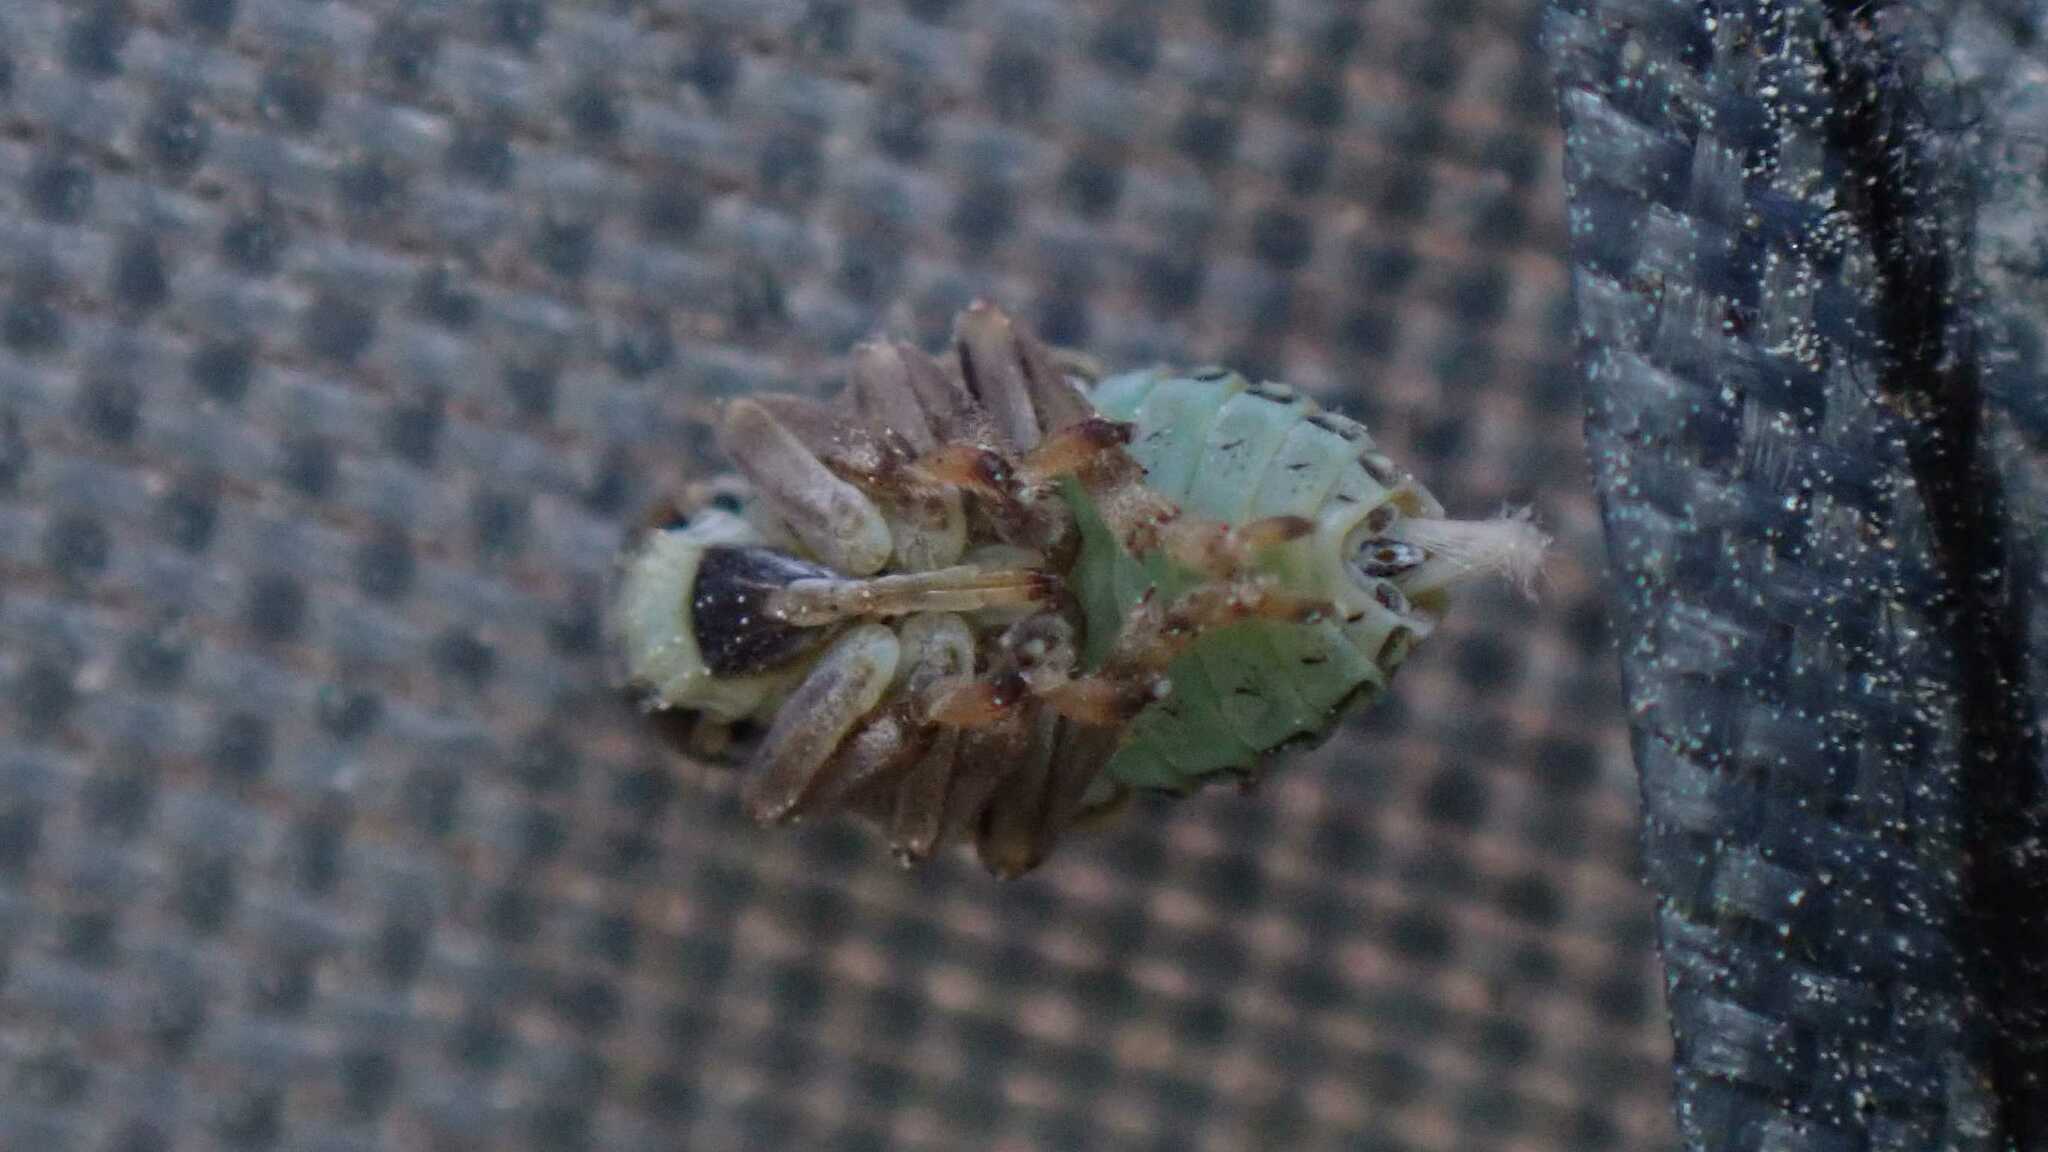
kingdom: Animalia
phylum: Arthropoda
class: Insecta
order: Hemiptera
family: Issidae
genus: Issus
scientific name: Issus coleoptratus
